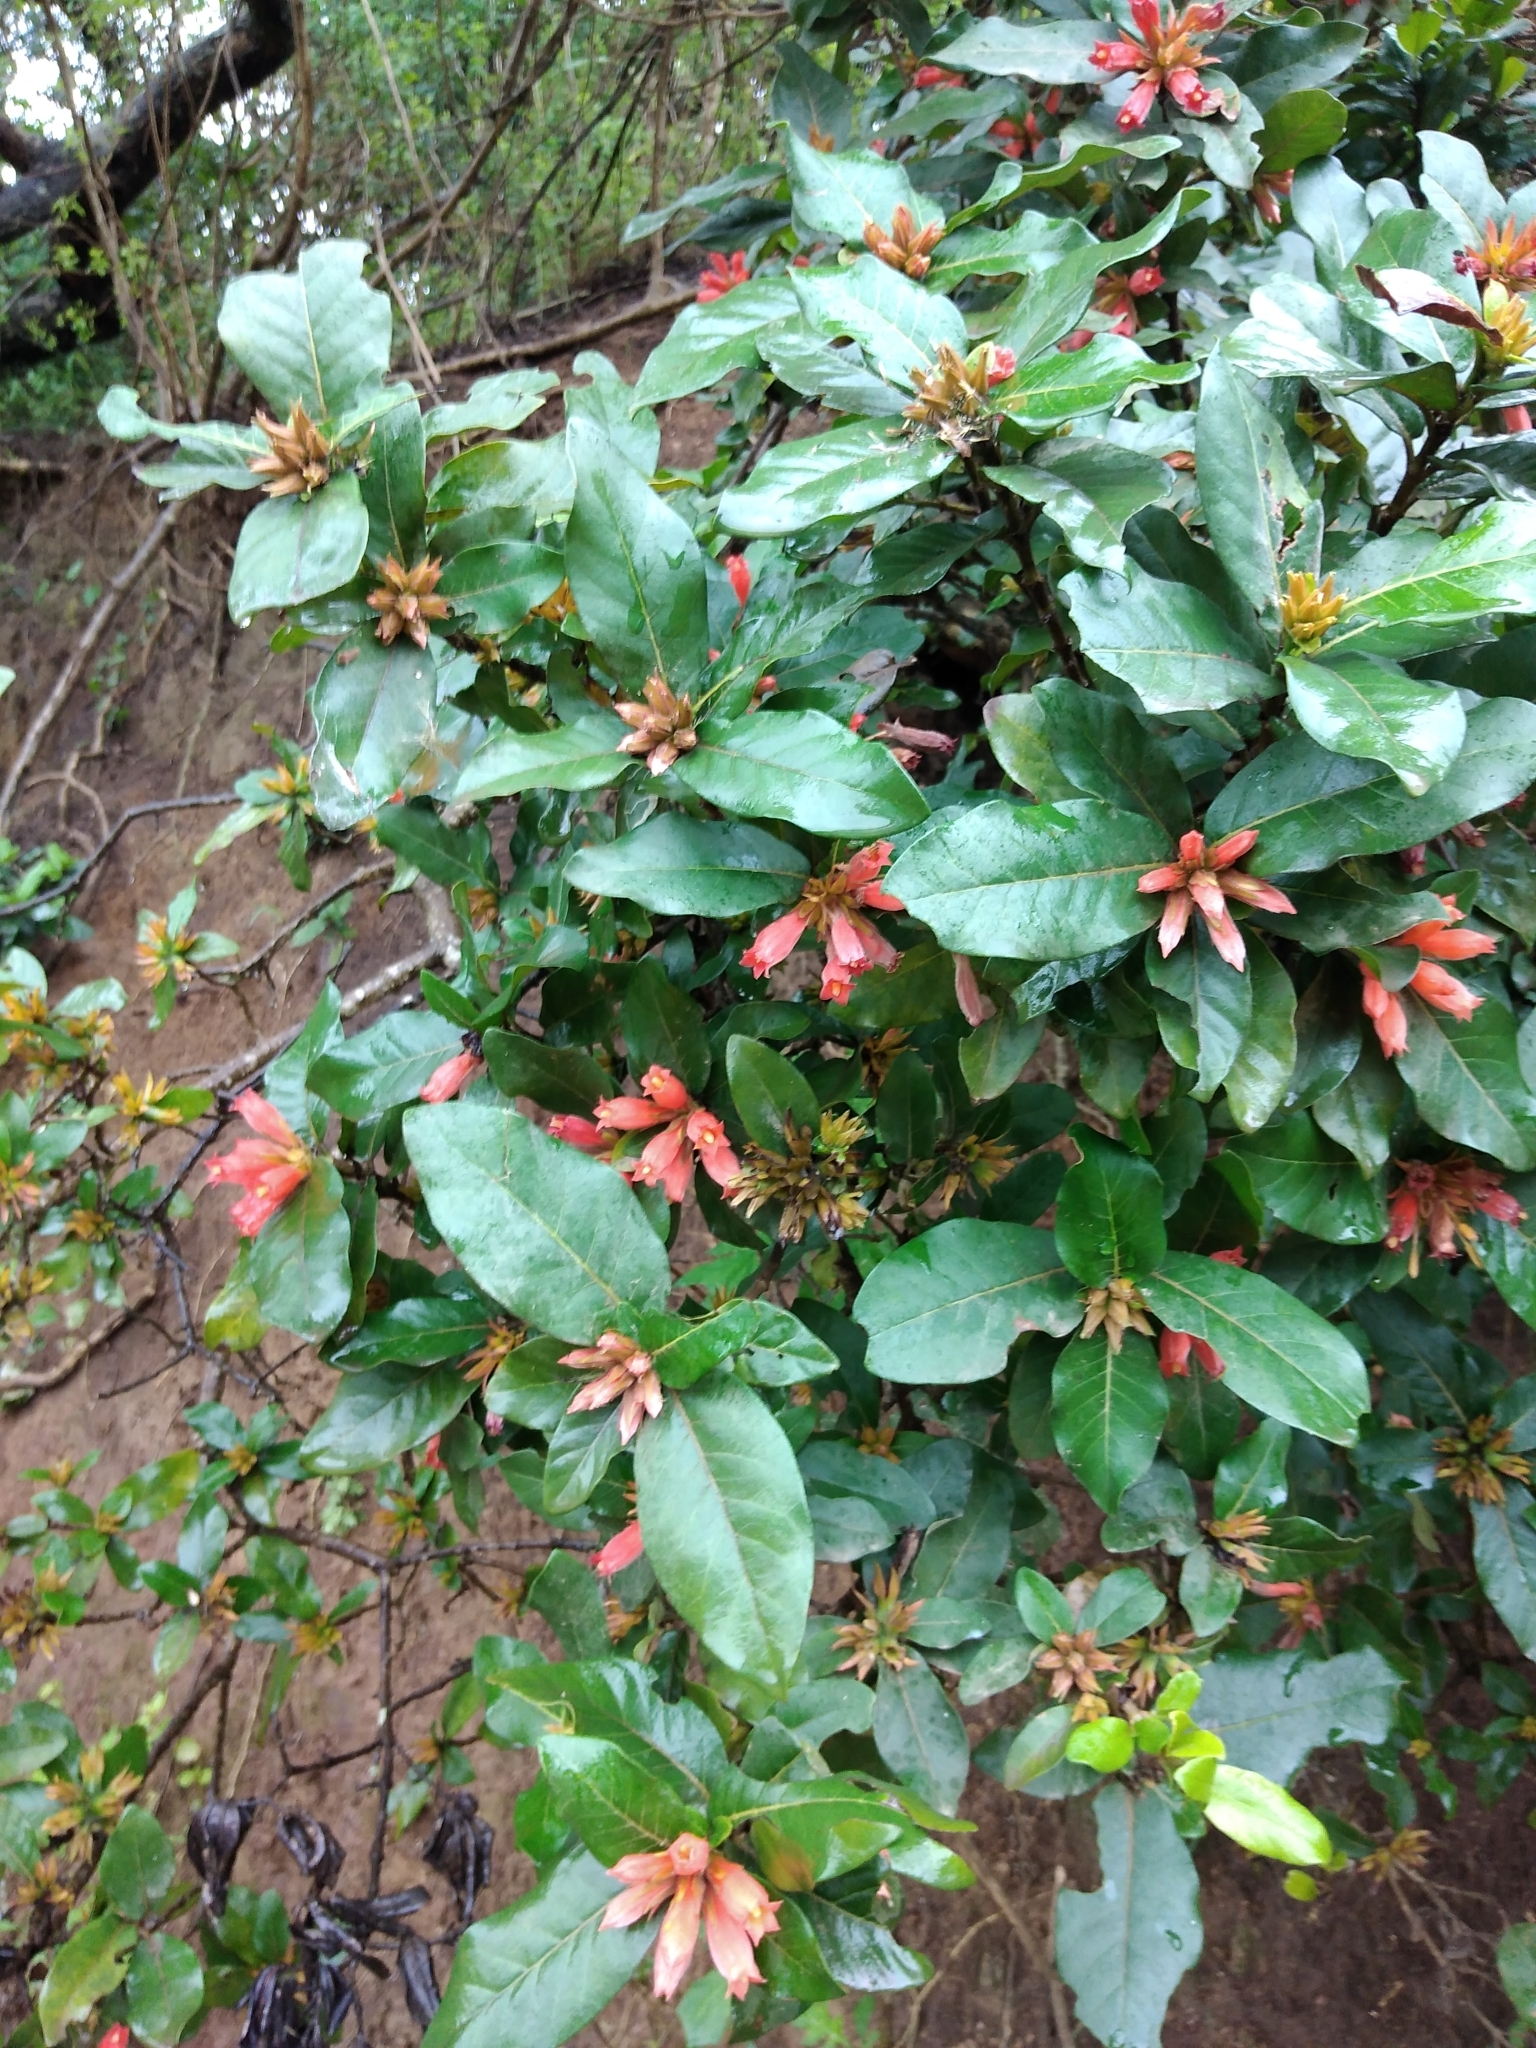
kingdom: Plantae
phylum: Tracheophyta
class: Magnoliopsida
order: Gentianales
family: Rubiaceae
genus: Burchellia
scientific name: Burchellia bubalina
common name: Wild pomegranate
